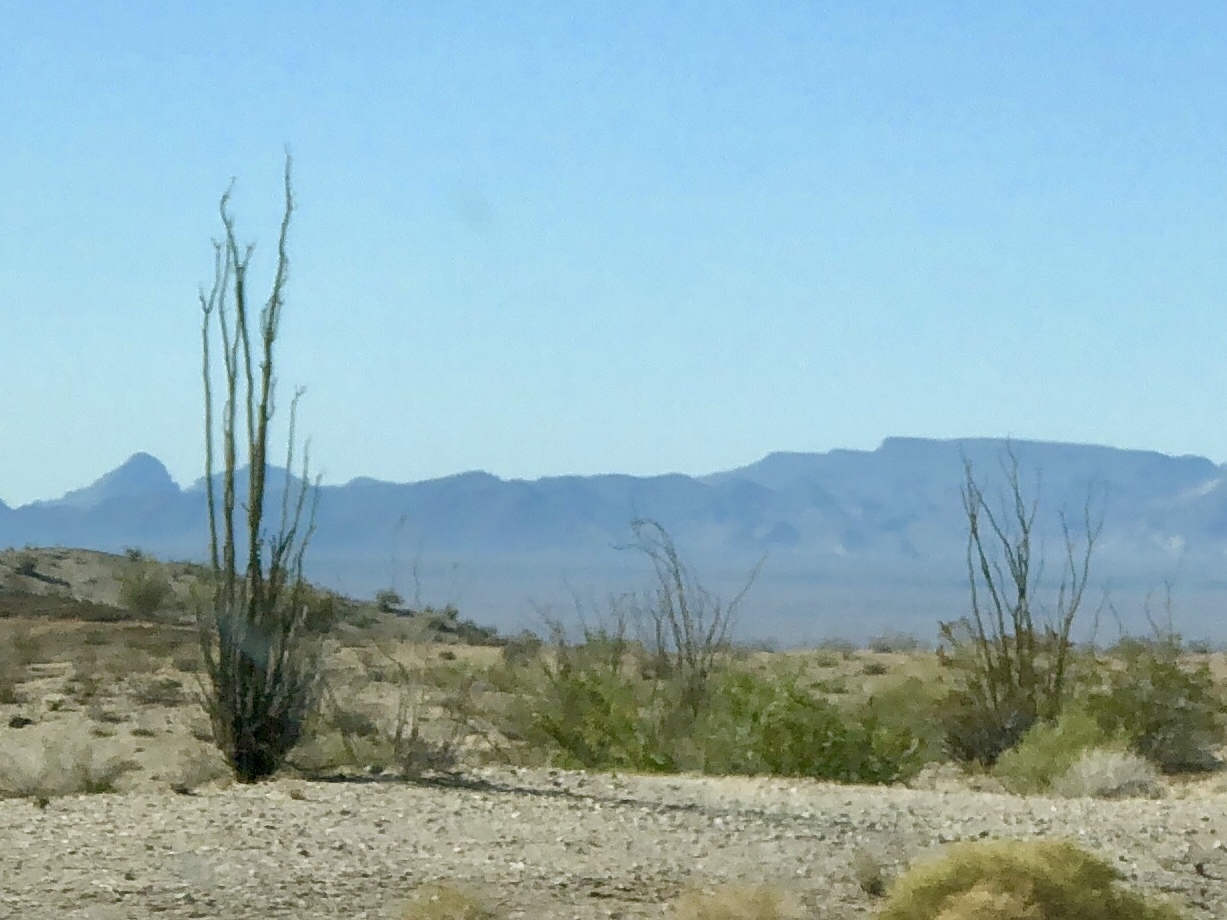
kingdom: Plantae
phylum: Tracheophyta
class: Magnoliopsida
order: Ericales
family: Fouquieriaceae
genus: Fouquieria
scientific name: Fouquieria splendens
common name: Vine-cactus
